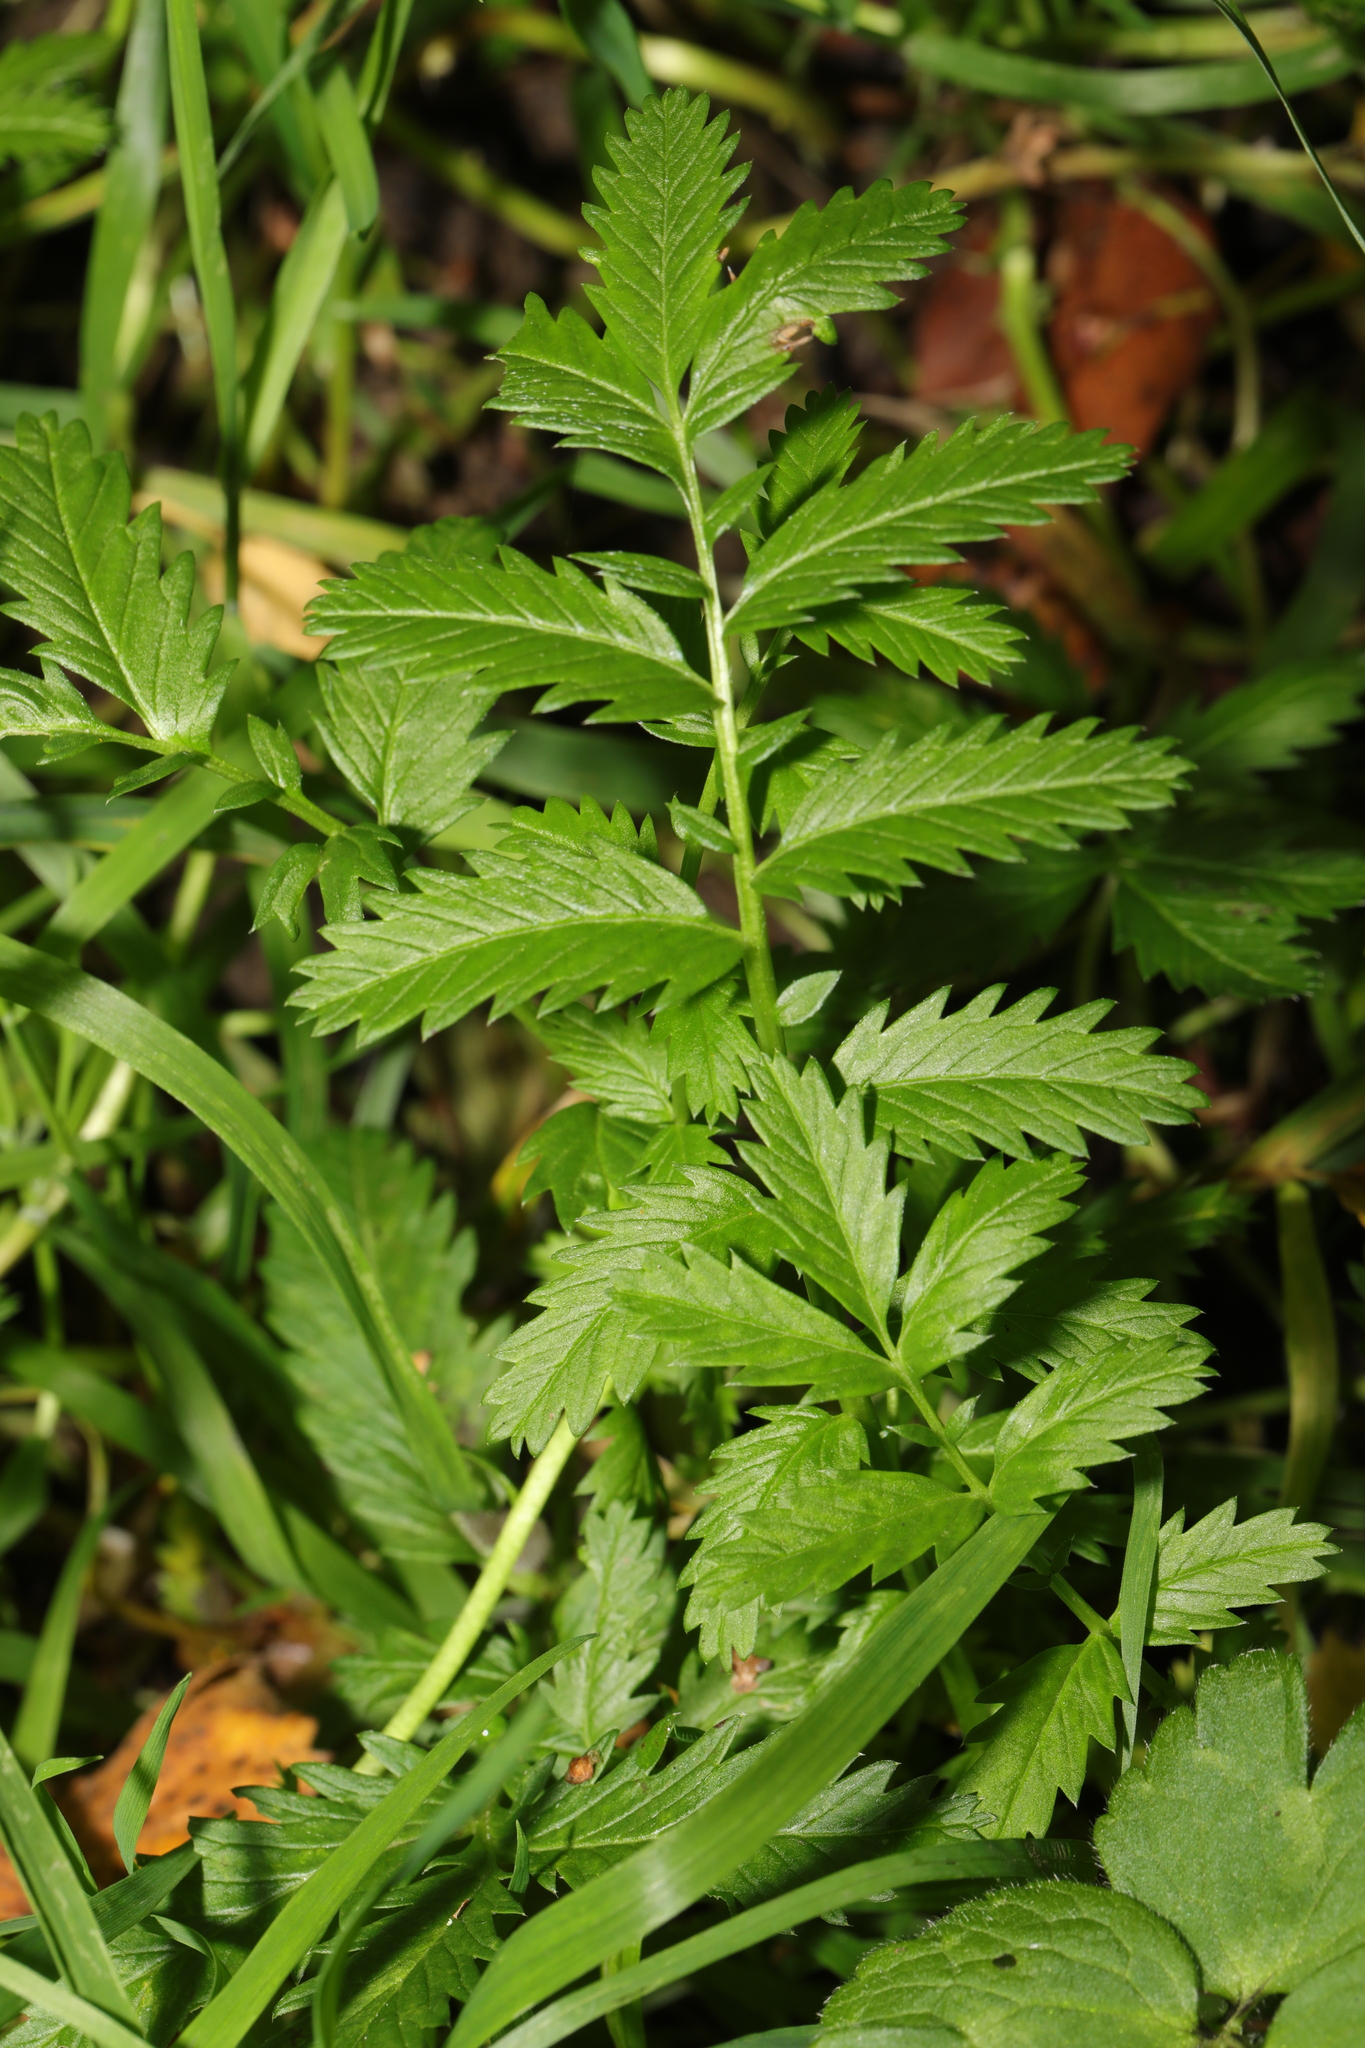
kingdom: Plantae
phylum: Tracheophyta
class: Magnoliopsida
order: Rosales
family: Rosaceae
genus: Argentina
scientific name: Argentina anserina
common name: Common silverweed
